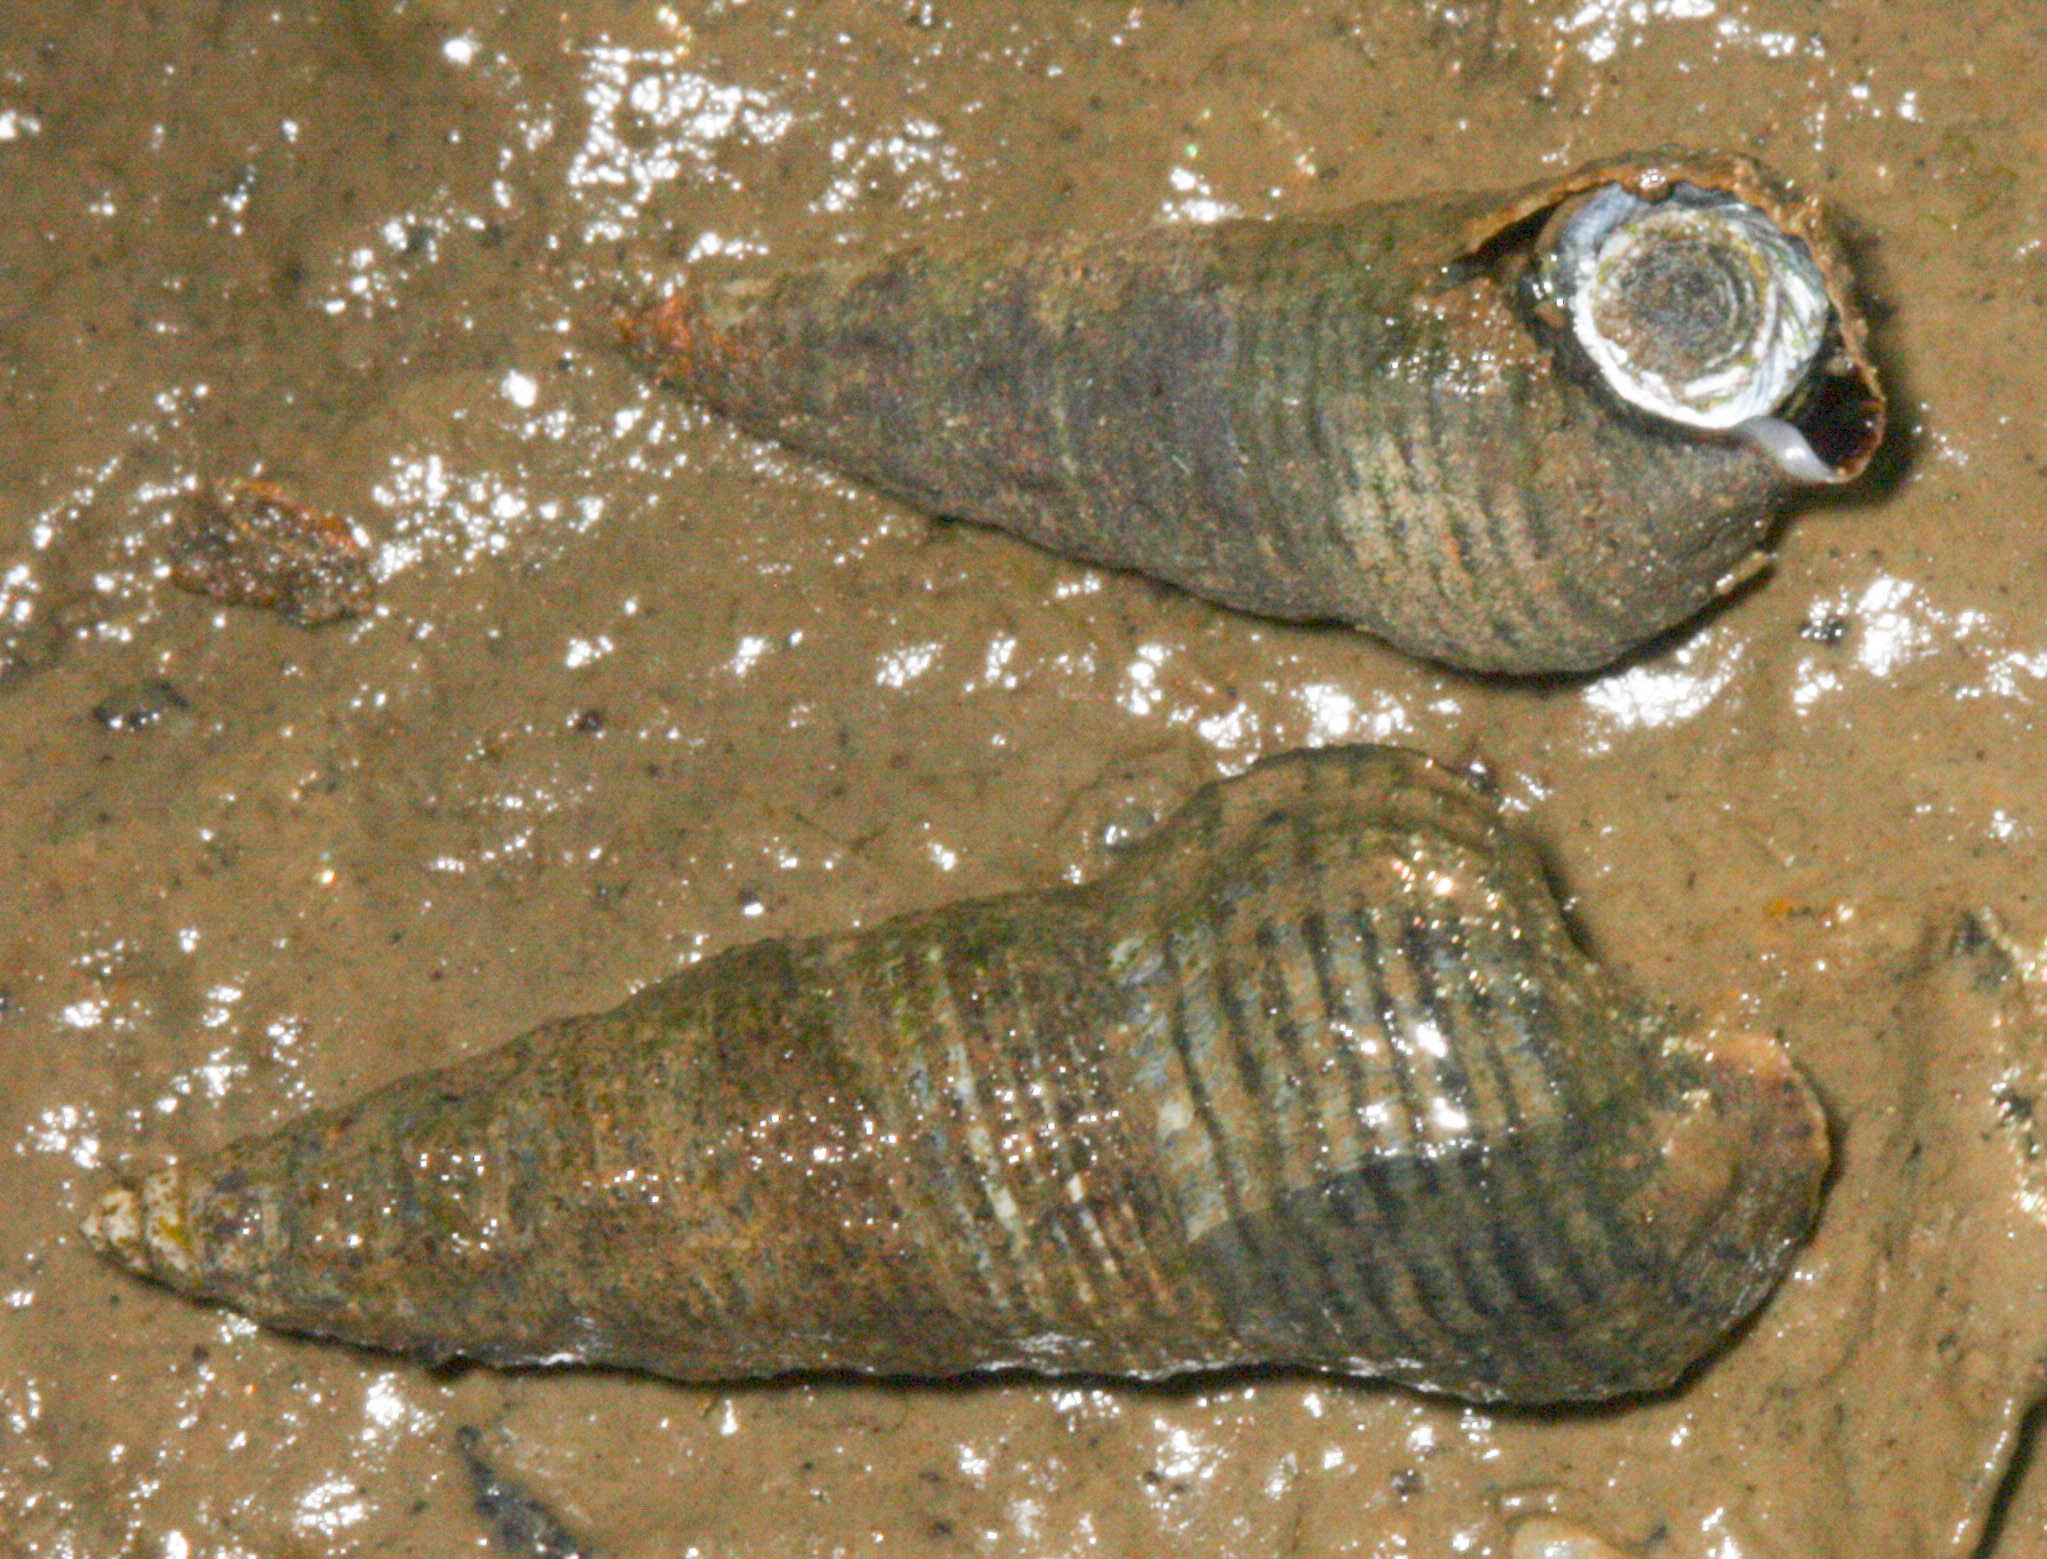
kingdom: Animalia
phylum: Mollusca
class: Gastropoda
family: Batillariidae
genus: Batillaria
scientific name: Batillaria attramentaria
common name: Japanese false cerith
